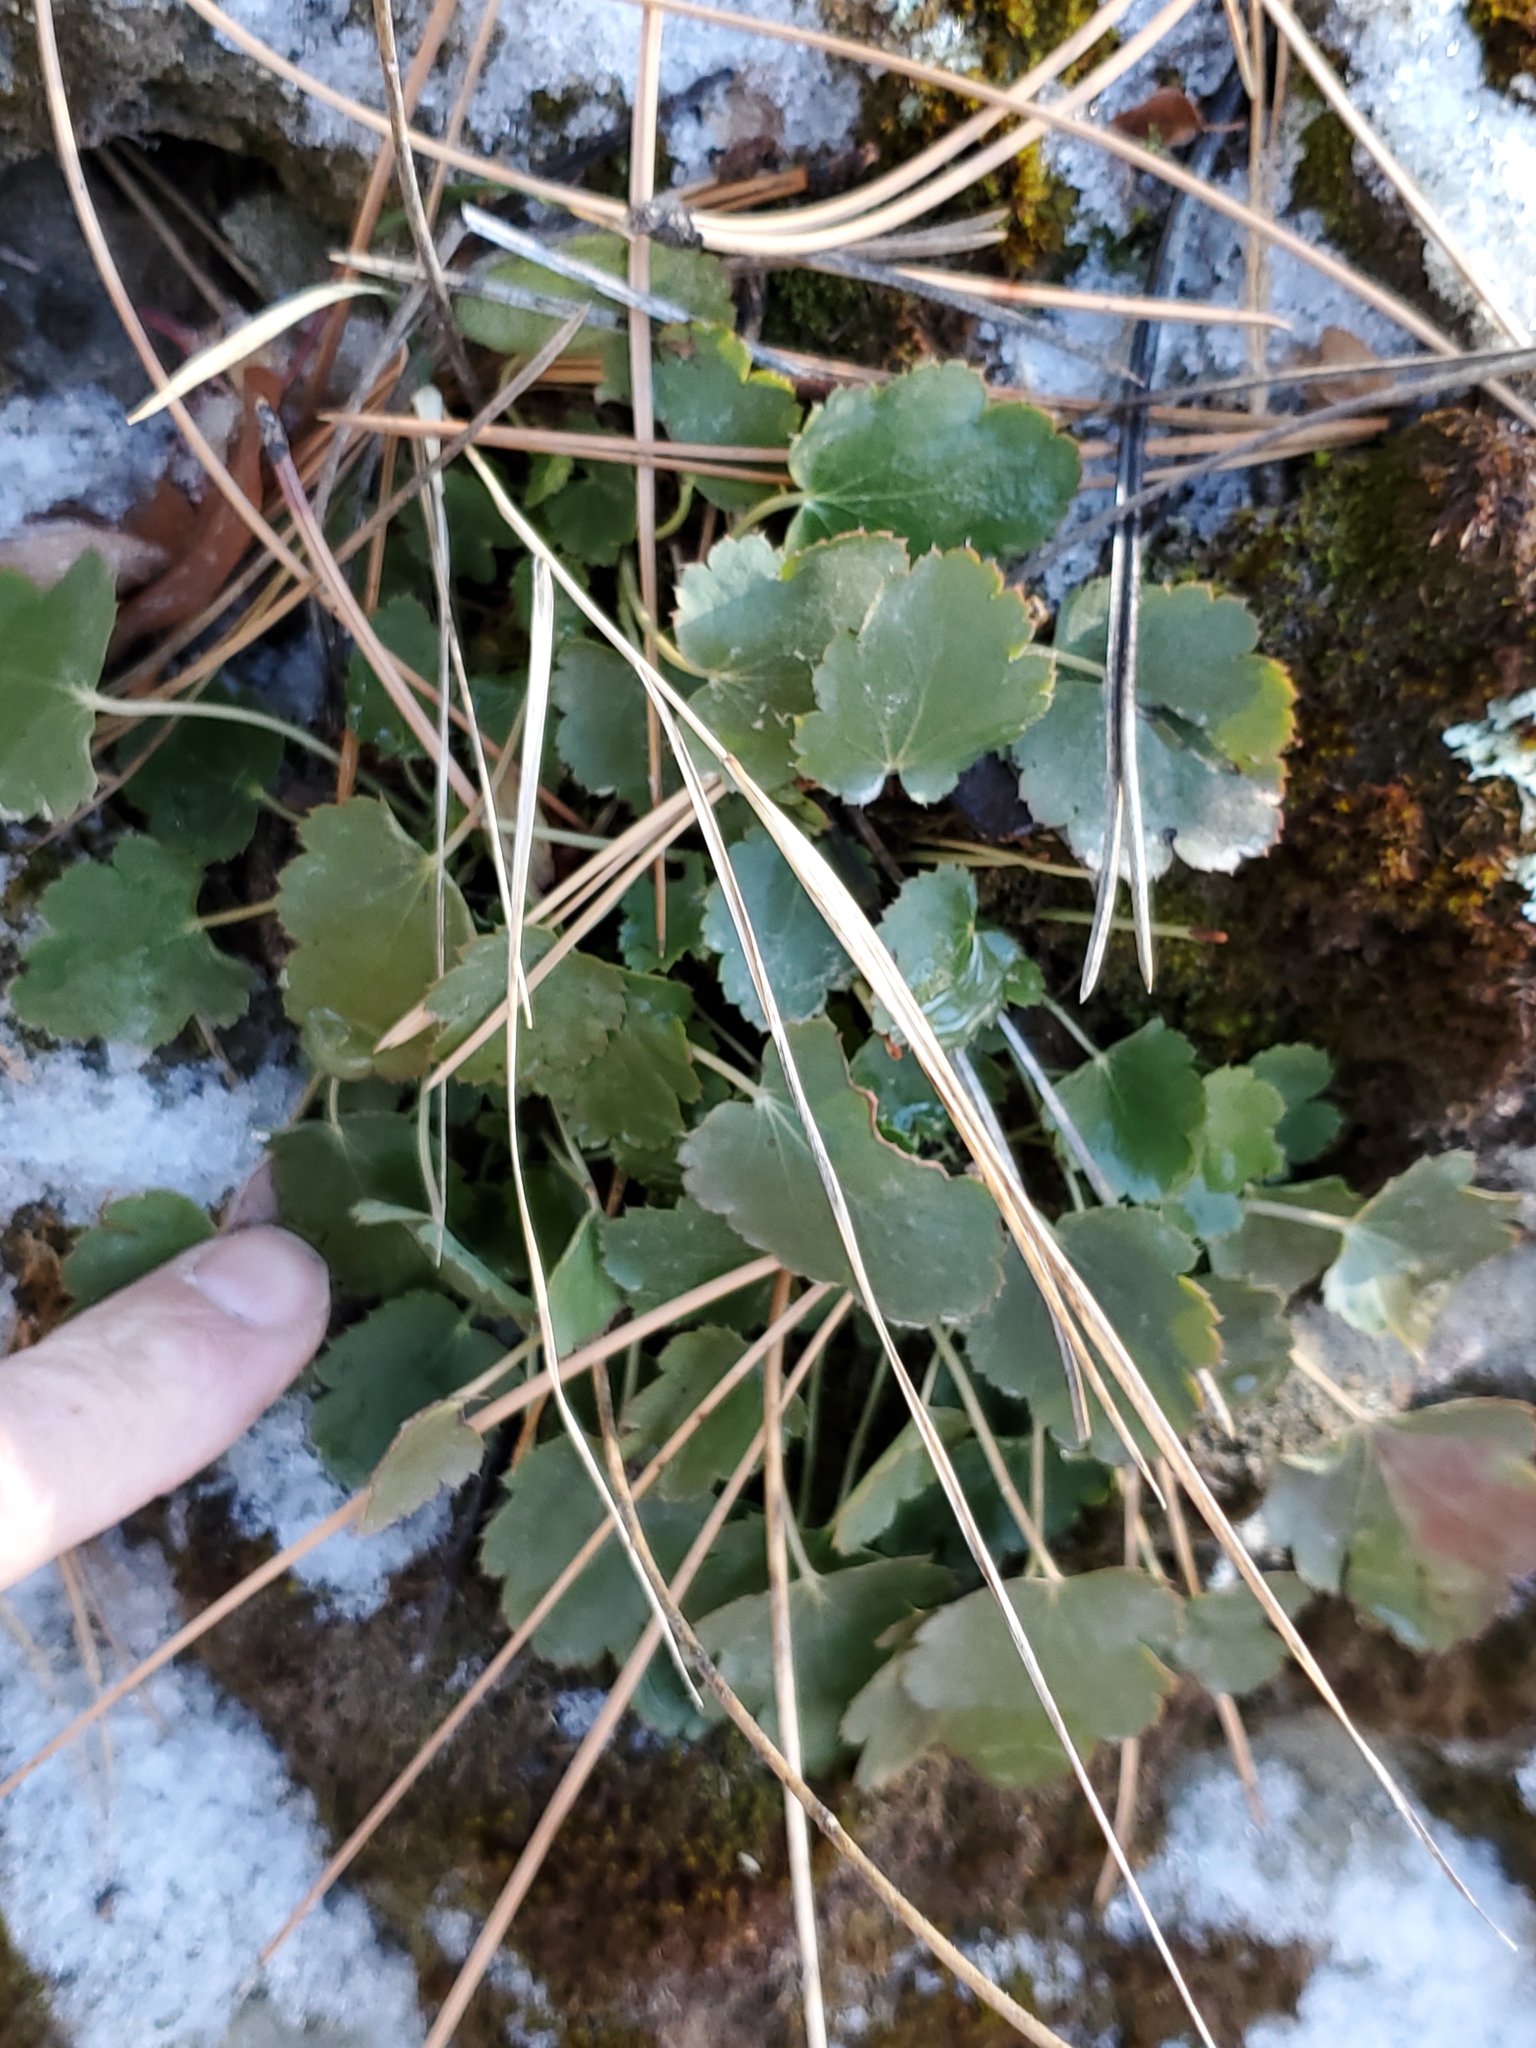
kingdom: Plantae
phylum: Tracheophyta
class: Magnoliopsida
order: Saxifragales
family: Saxifragaceae
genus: Heuchera
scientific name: Heuchera cylindrica
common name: Mat alumroot
